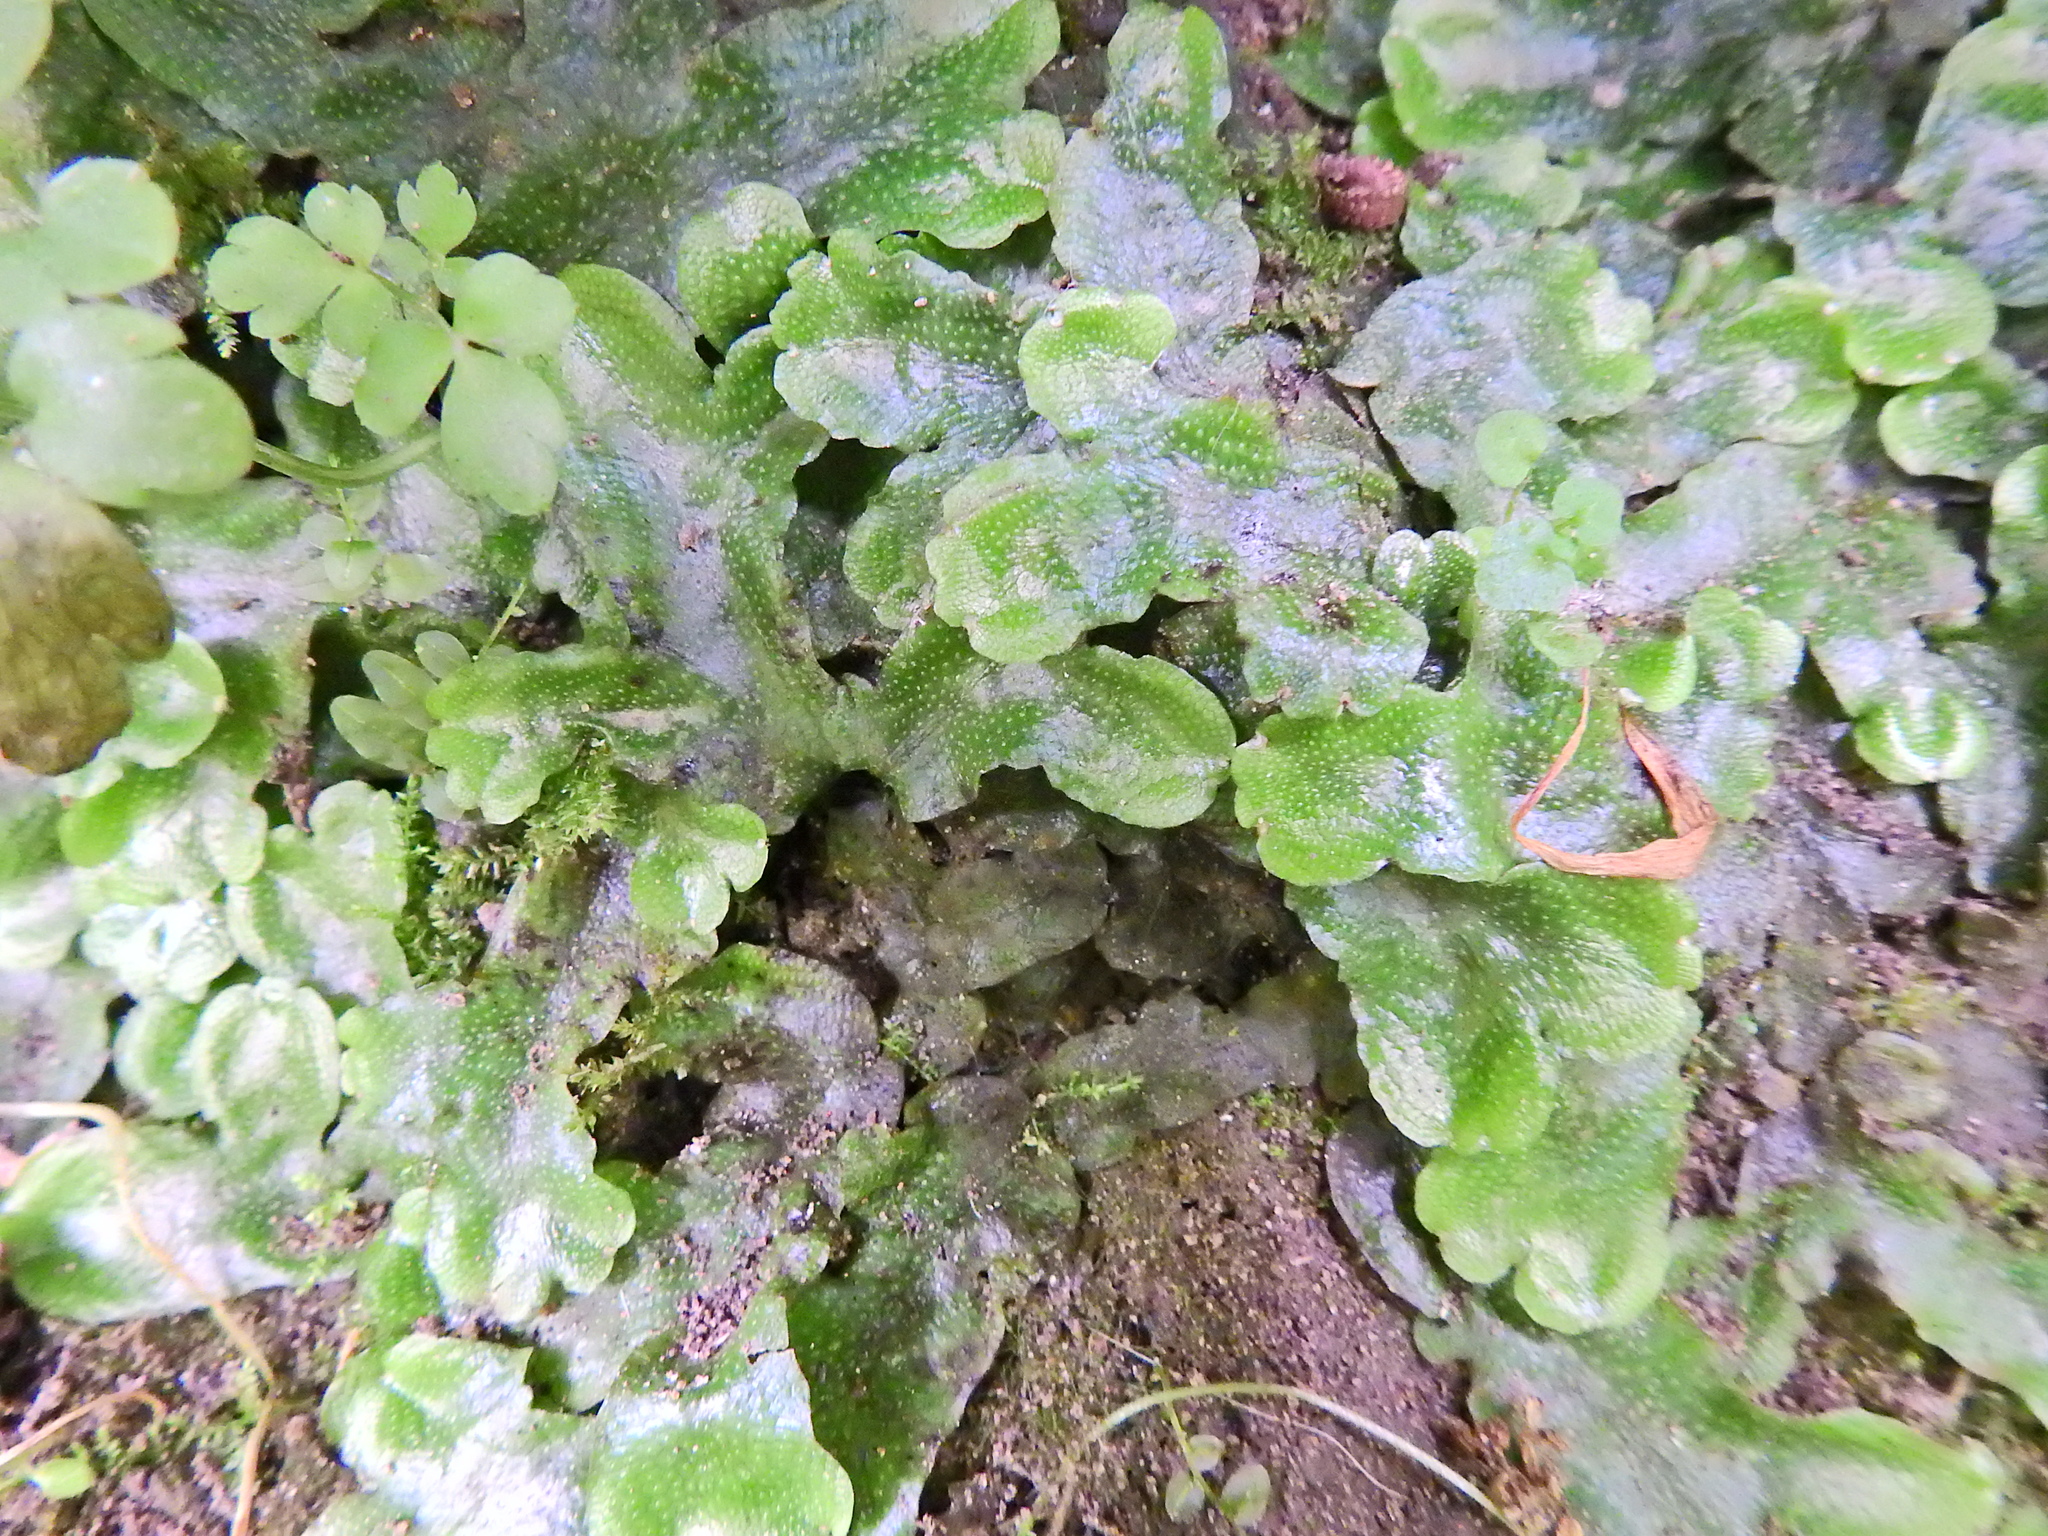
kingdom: Plantae
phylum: Marchantiophyta
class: Marchantiopsida
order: Marchantiales
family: Conocephalaceae
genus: Conocephalum
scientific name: Conocephalum conicum
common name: Great scented liverwort
